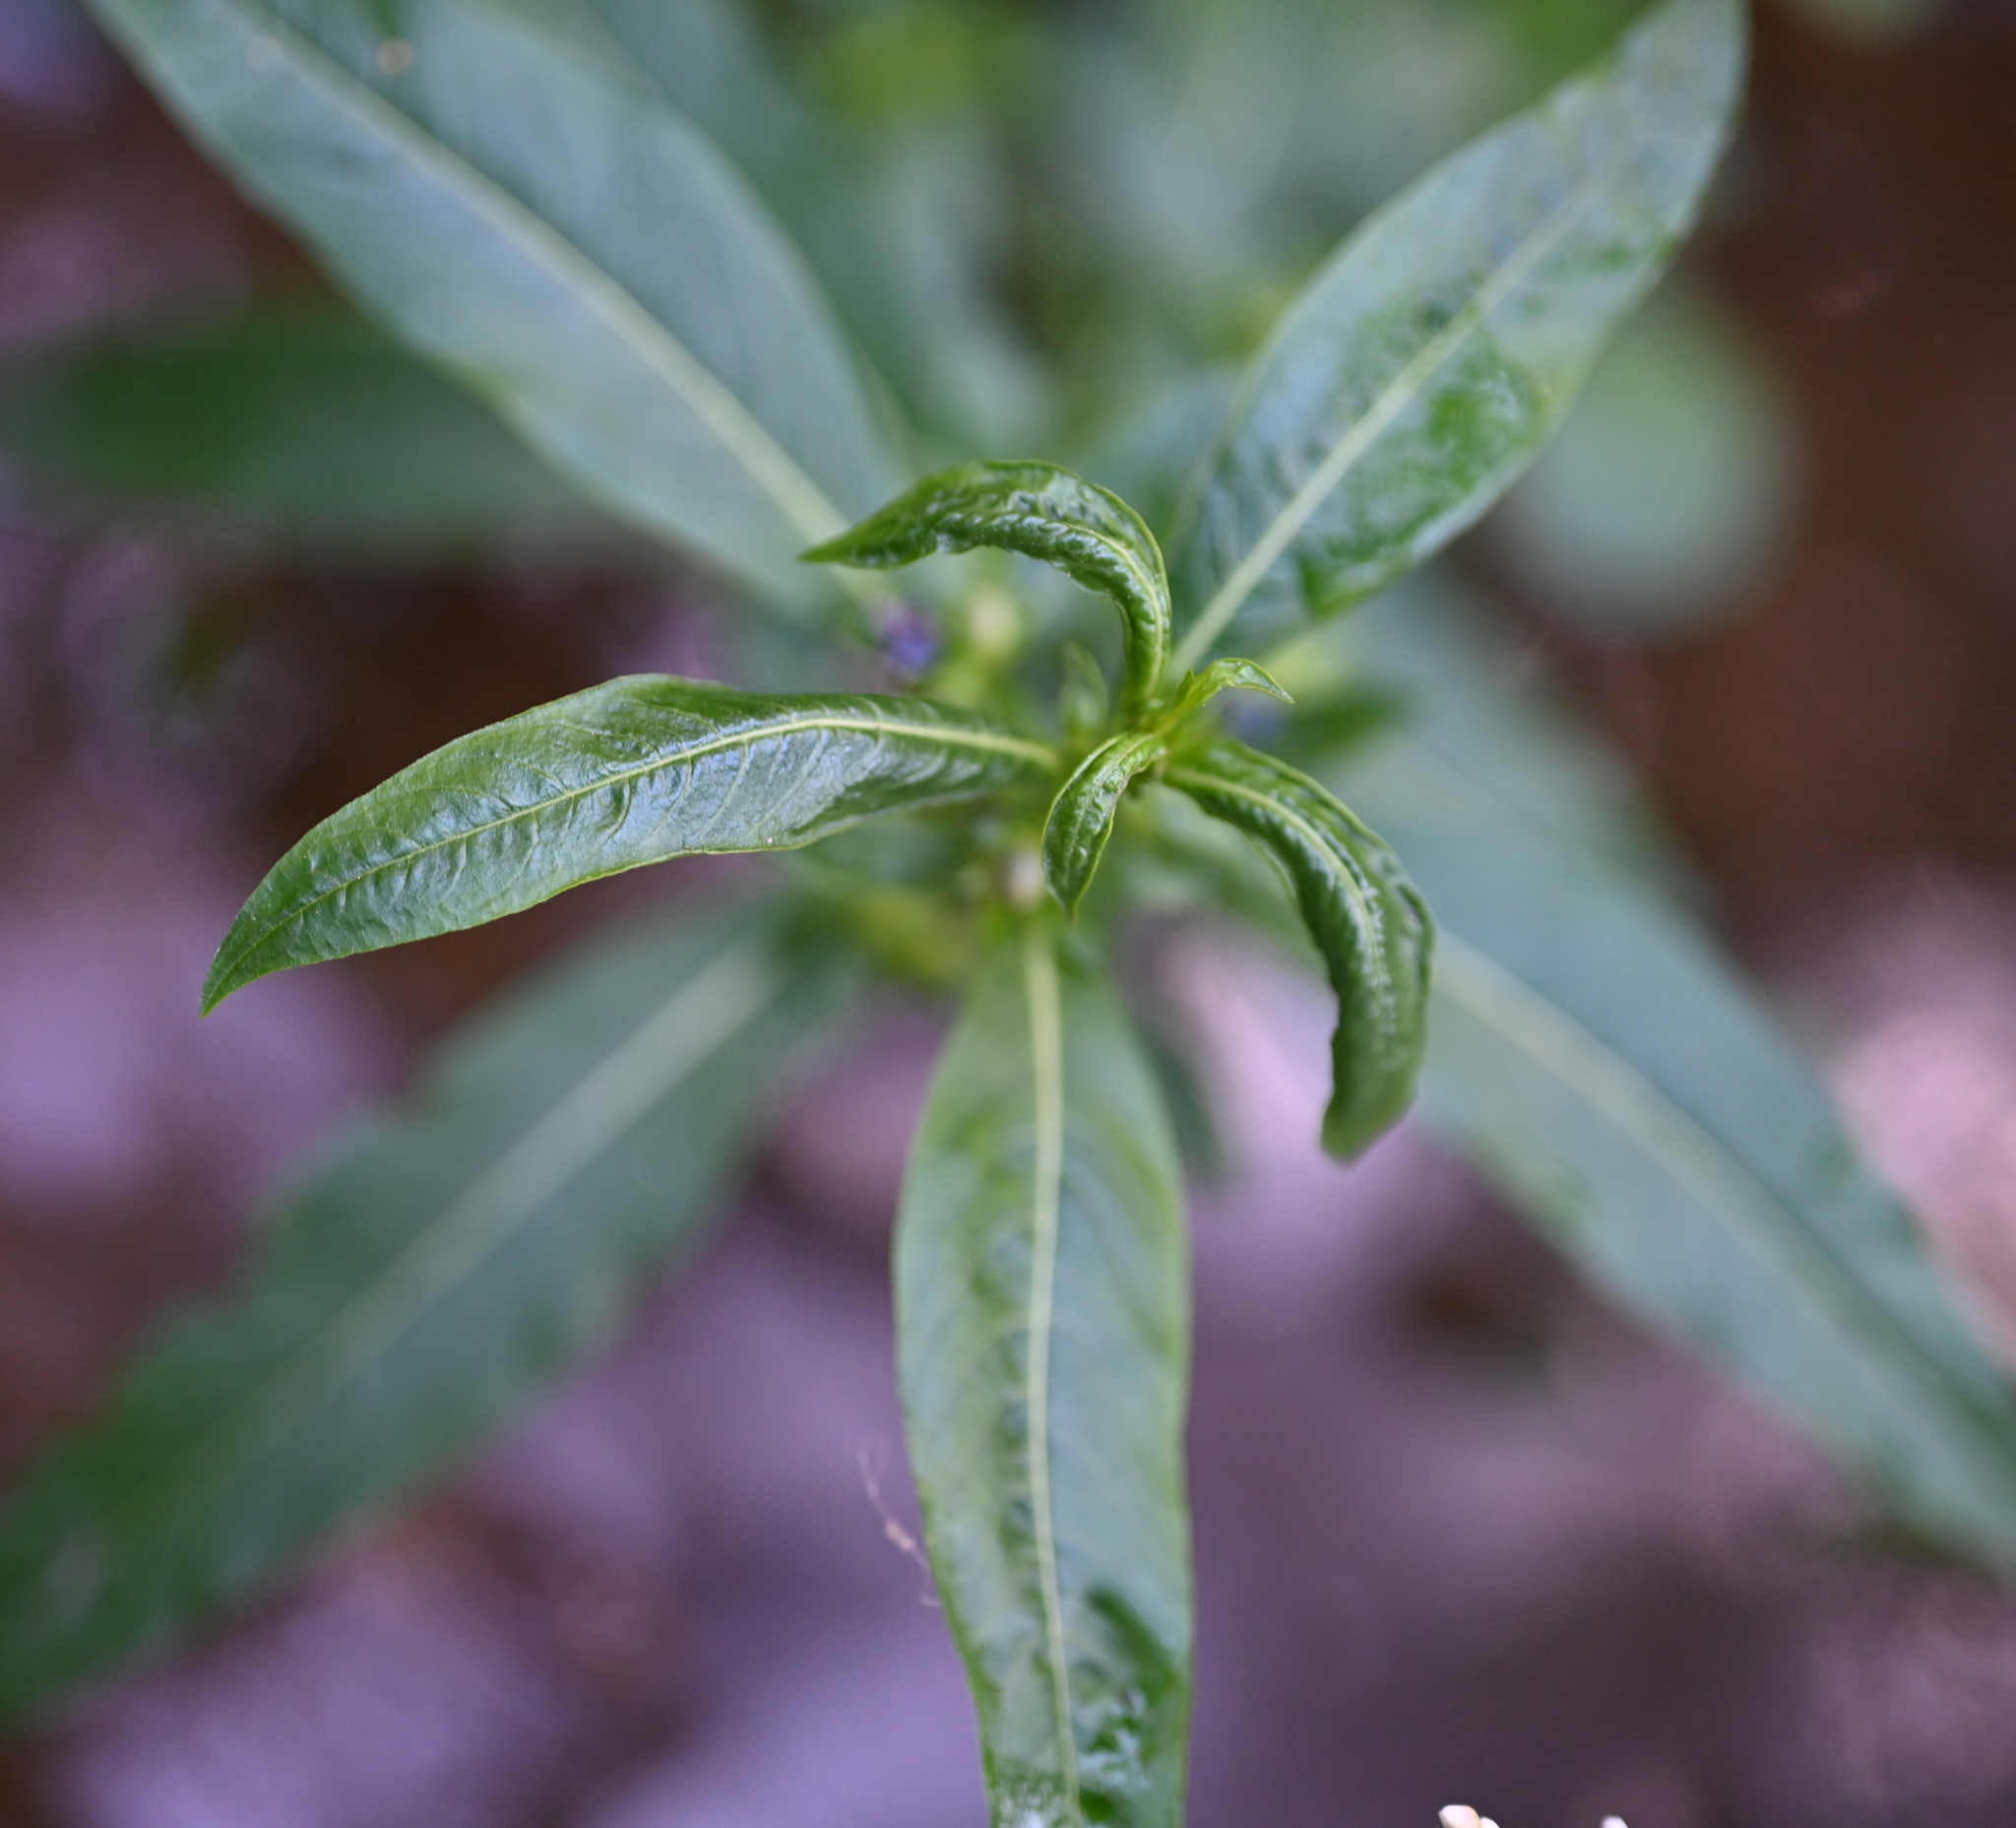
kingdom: Plantae
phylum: Tracheophyta
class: Magnoliopsida
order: Solanales
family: Hydroleaceae
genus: Hydrolea
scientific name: Hydrolea uniflora
